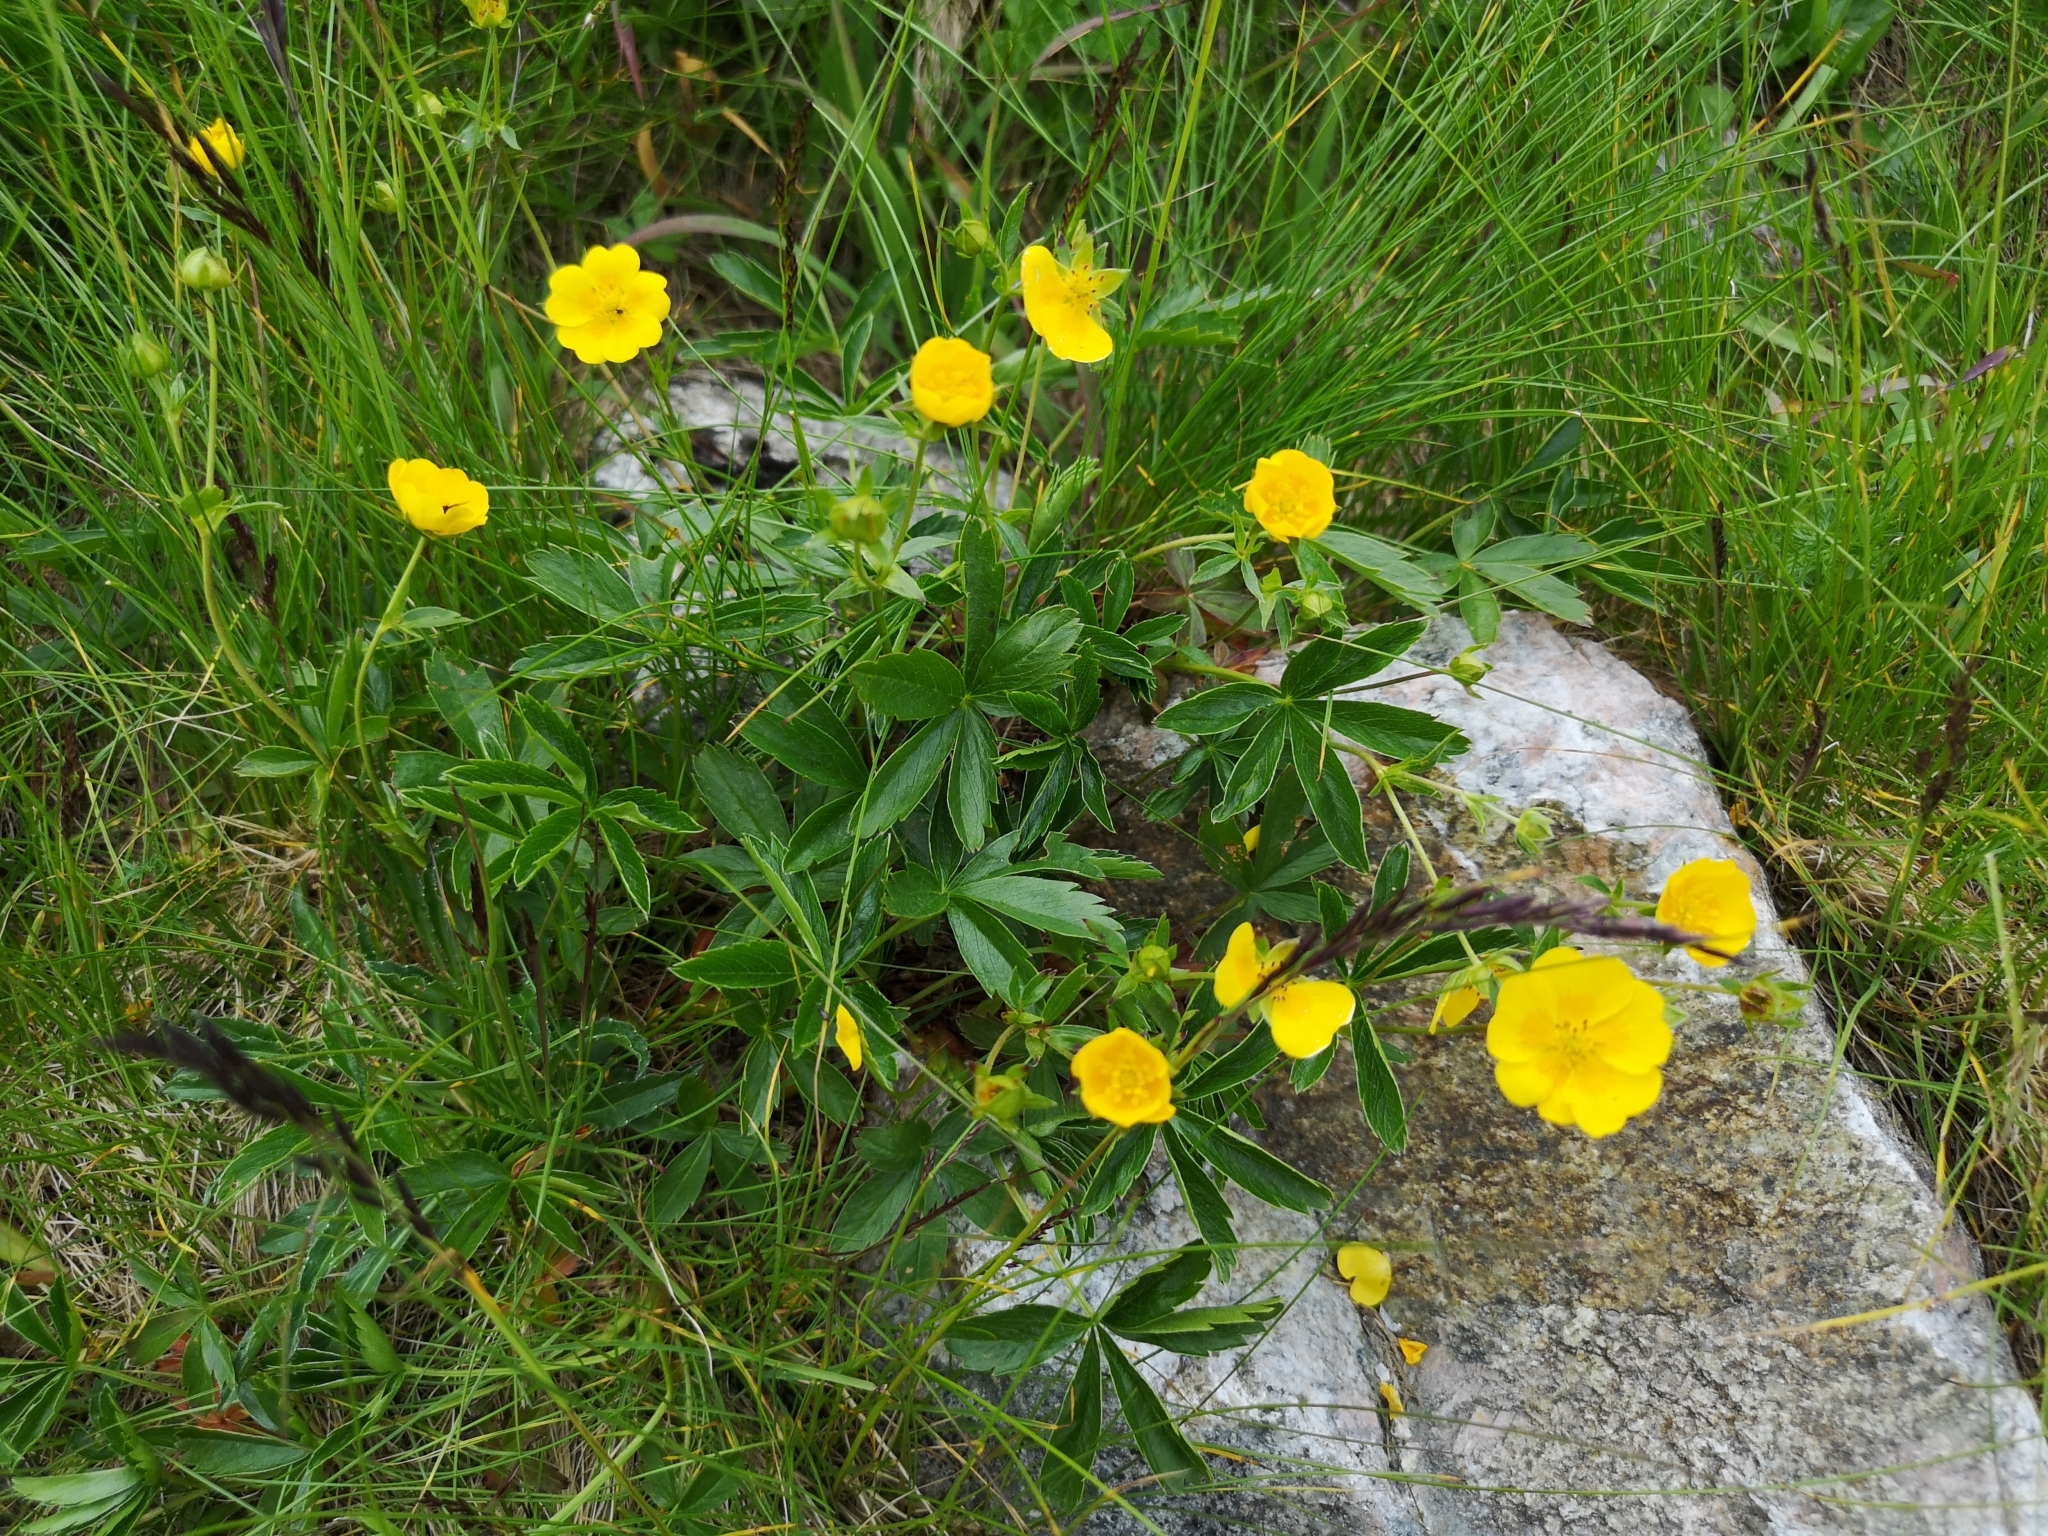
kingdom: Plantae
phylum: Tracheophyta
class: Magnoliopsida
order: Rosales
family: Rosaceae
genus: Potentilla
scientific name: Potentilla aurea
